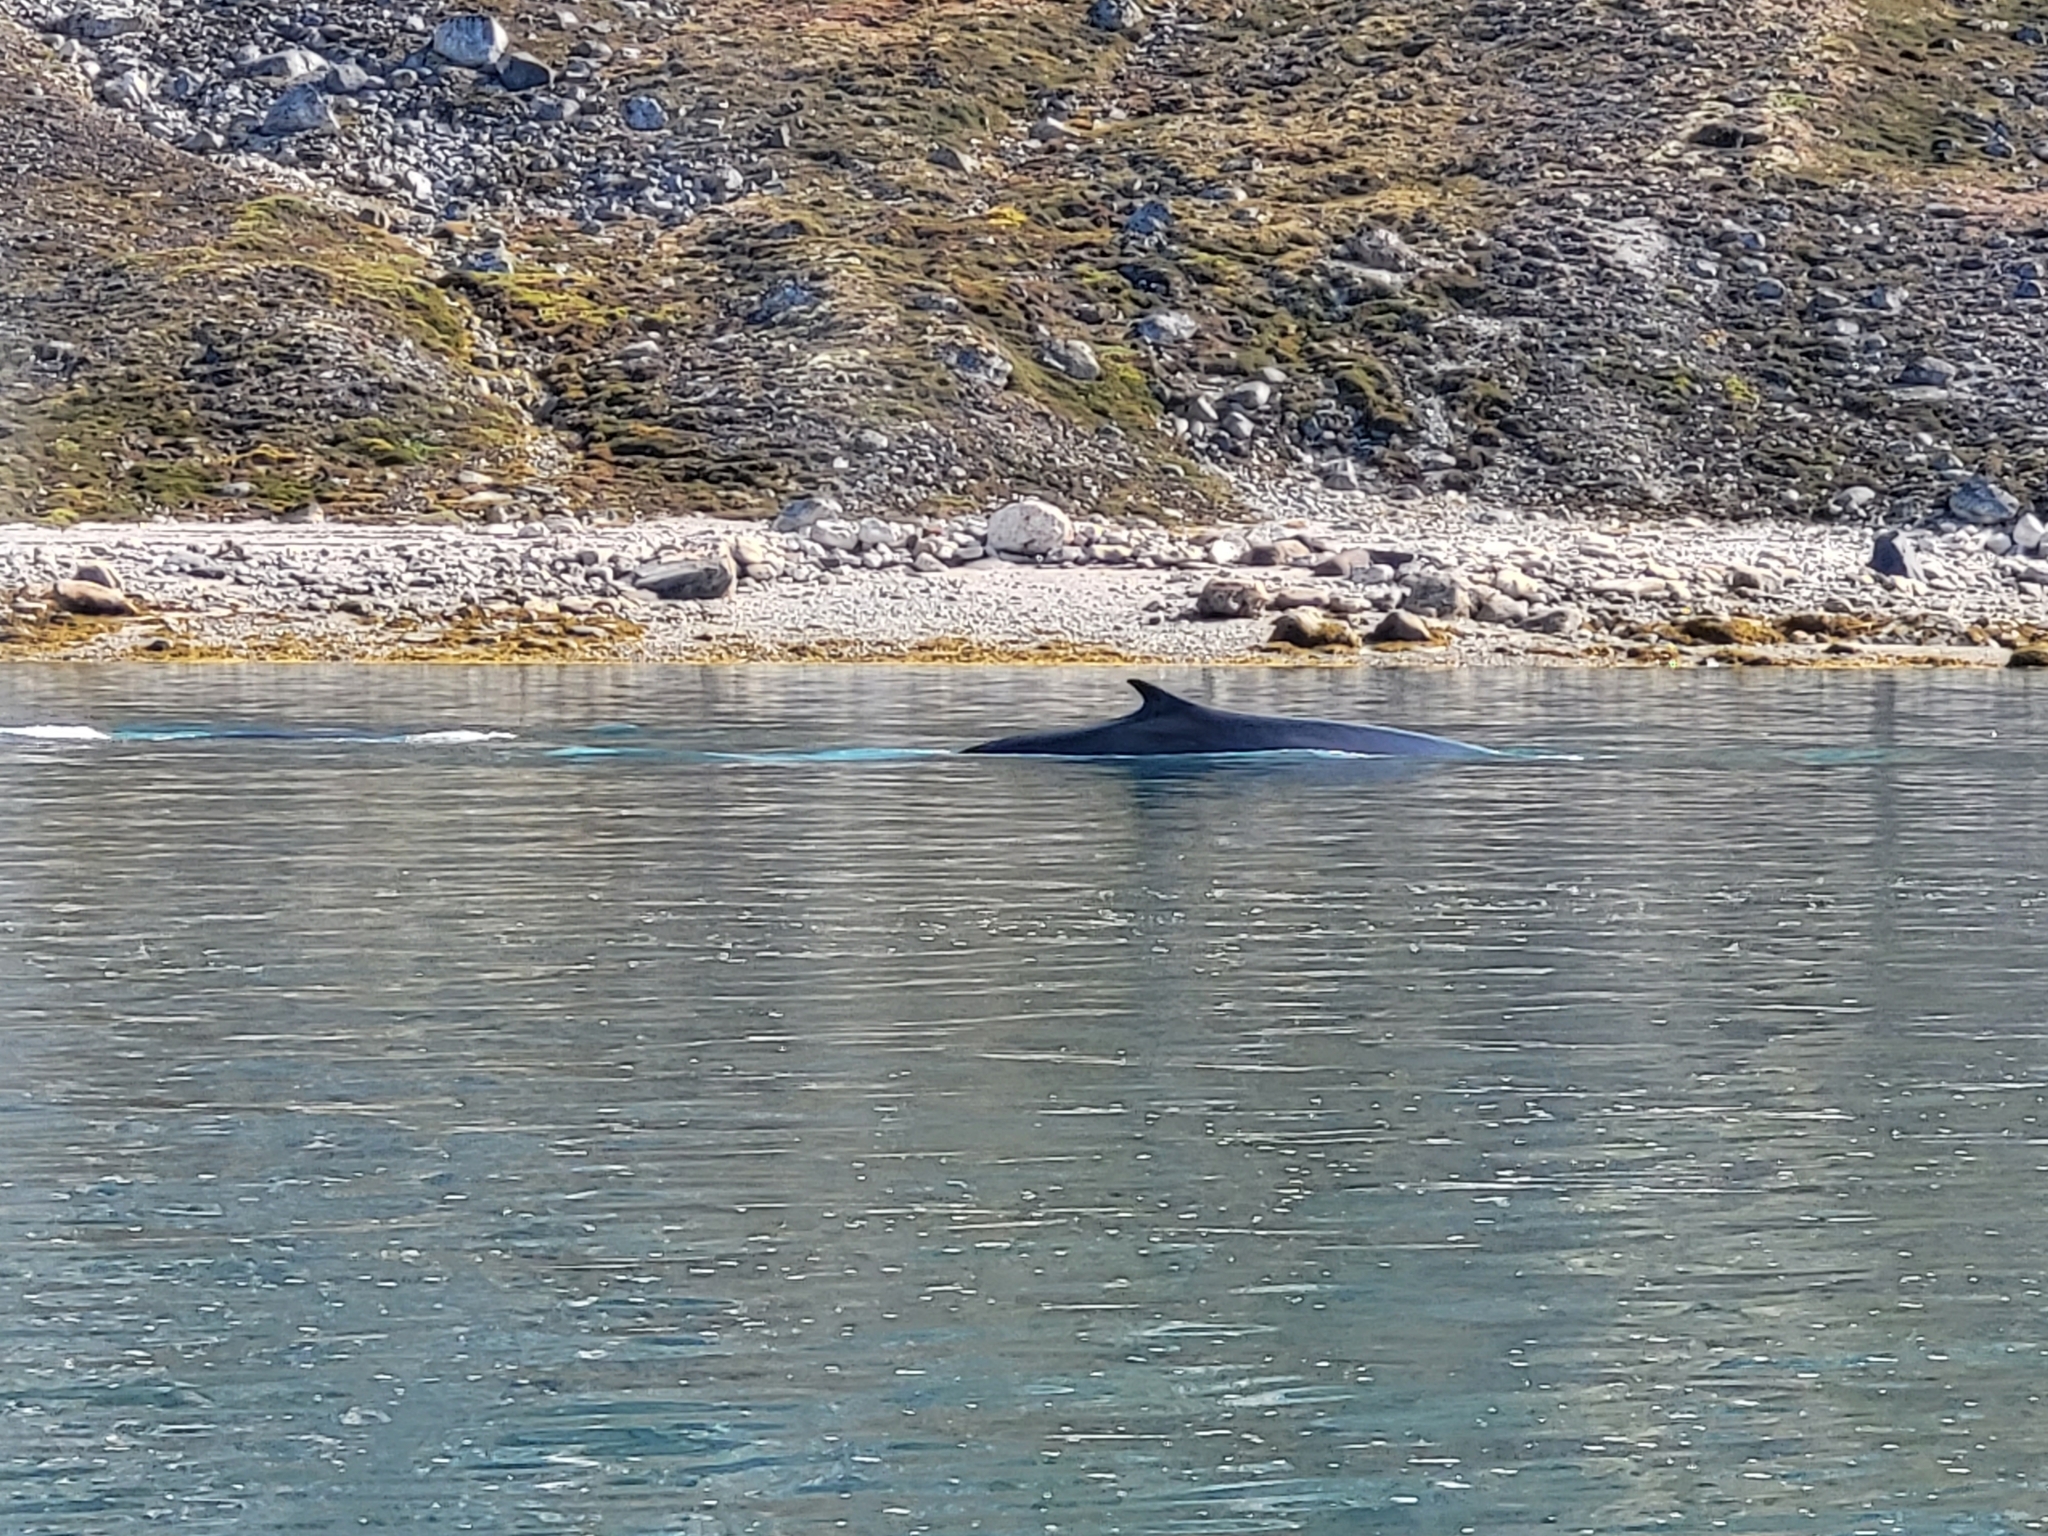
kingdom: Animalia
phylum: Chordata
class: Mammalia
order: Cetacea
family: Balaenopteridae
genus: Balaenoptera
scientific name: Balaenoptera physalus
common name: Fin whale
